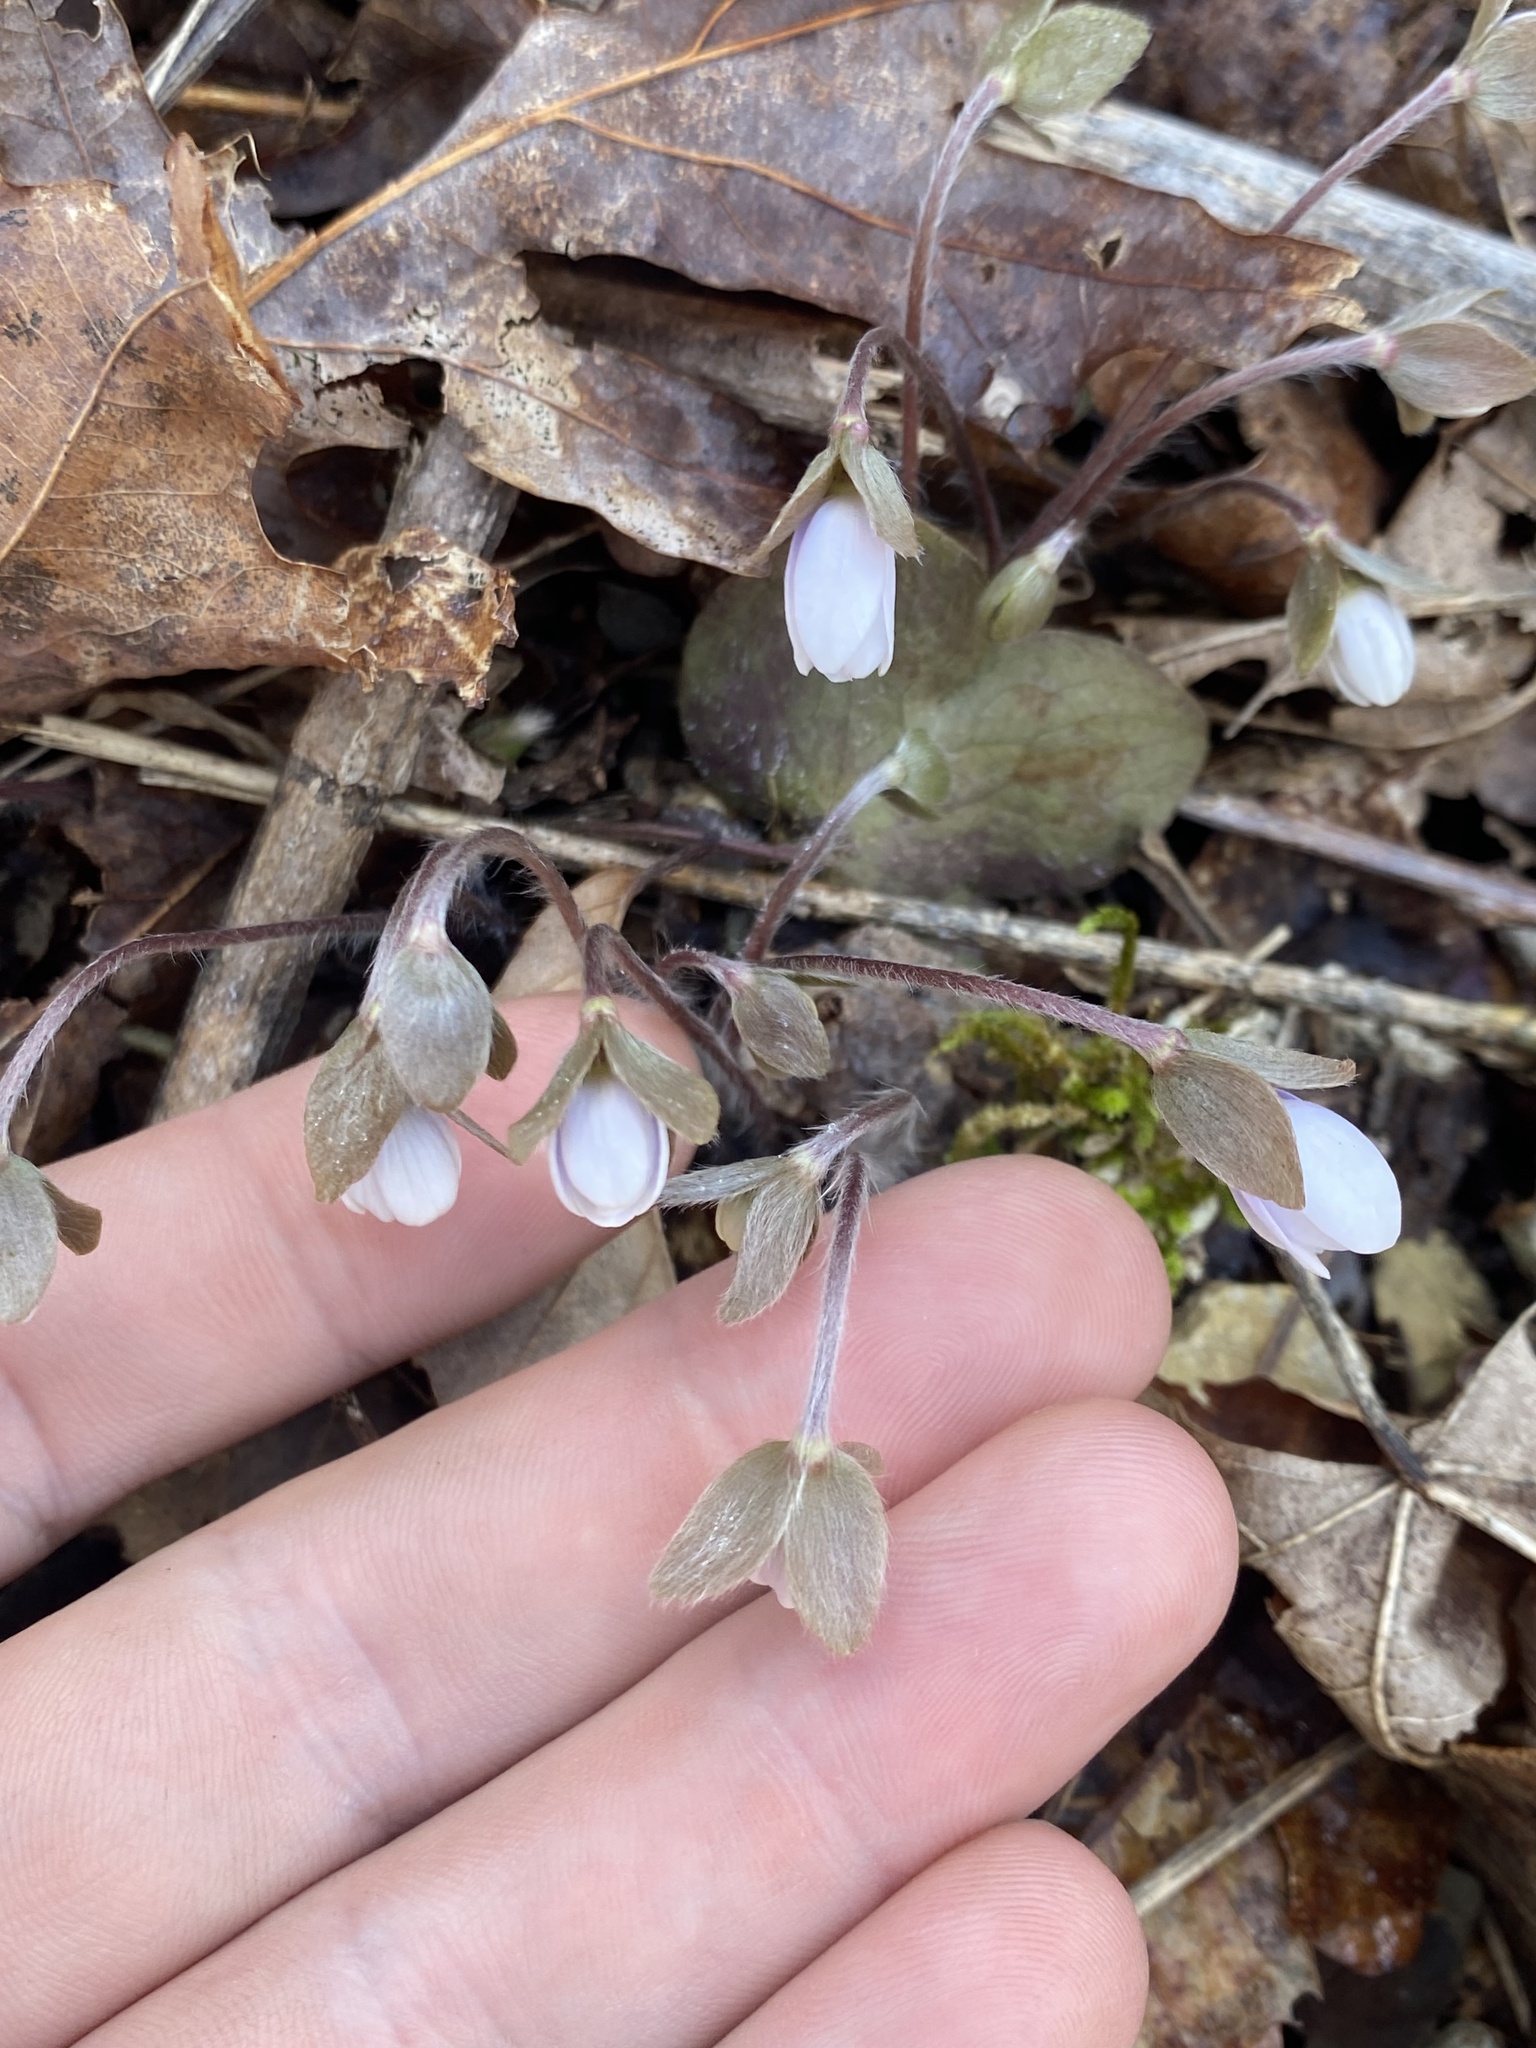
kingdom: Plantae
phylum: Tracheophyta
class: Magnoliopsida
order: Ranunculales
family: Ranunculaceae
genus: Hepatica
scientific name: Hepatica americana
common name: American hepatica
